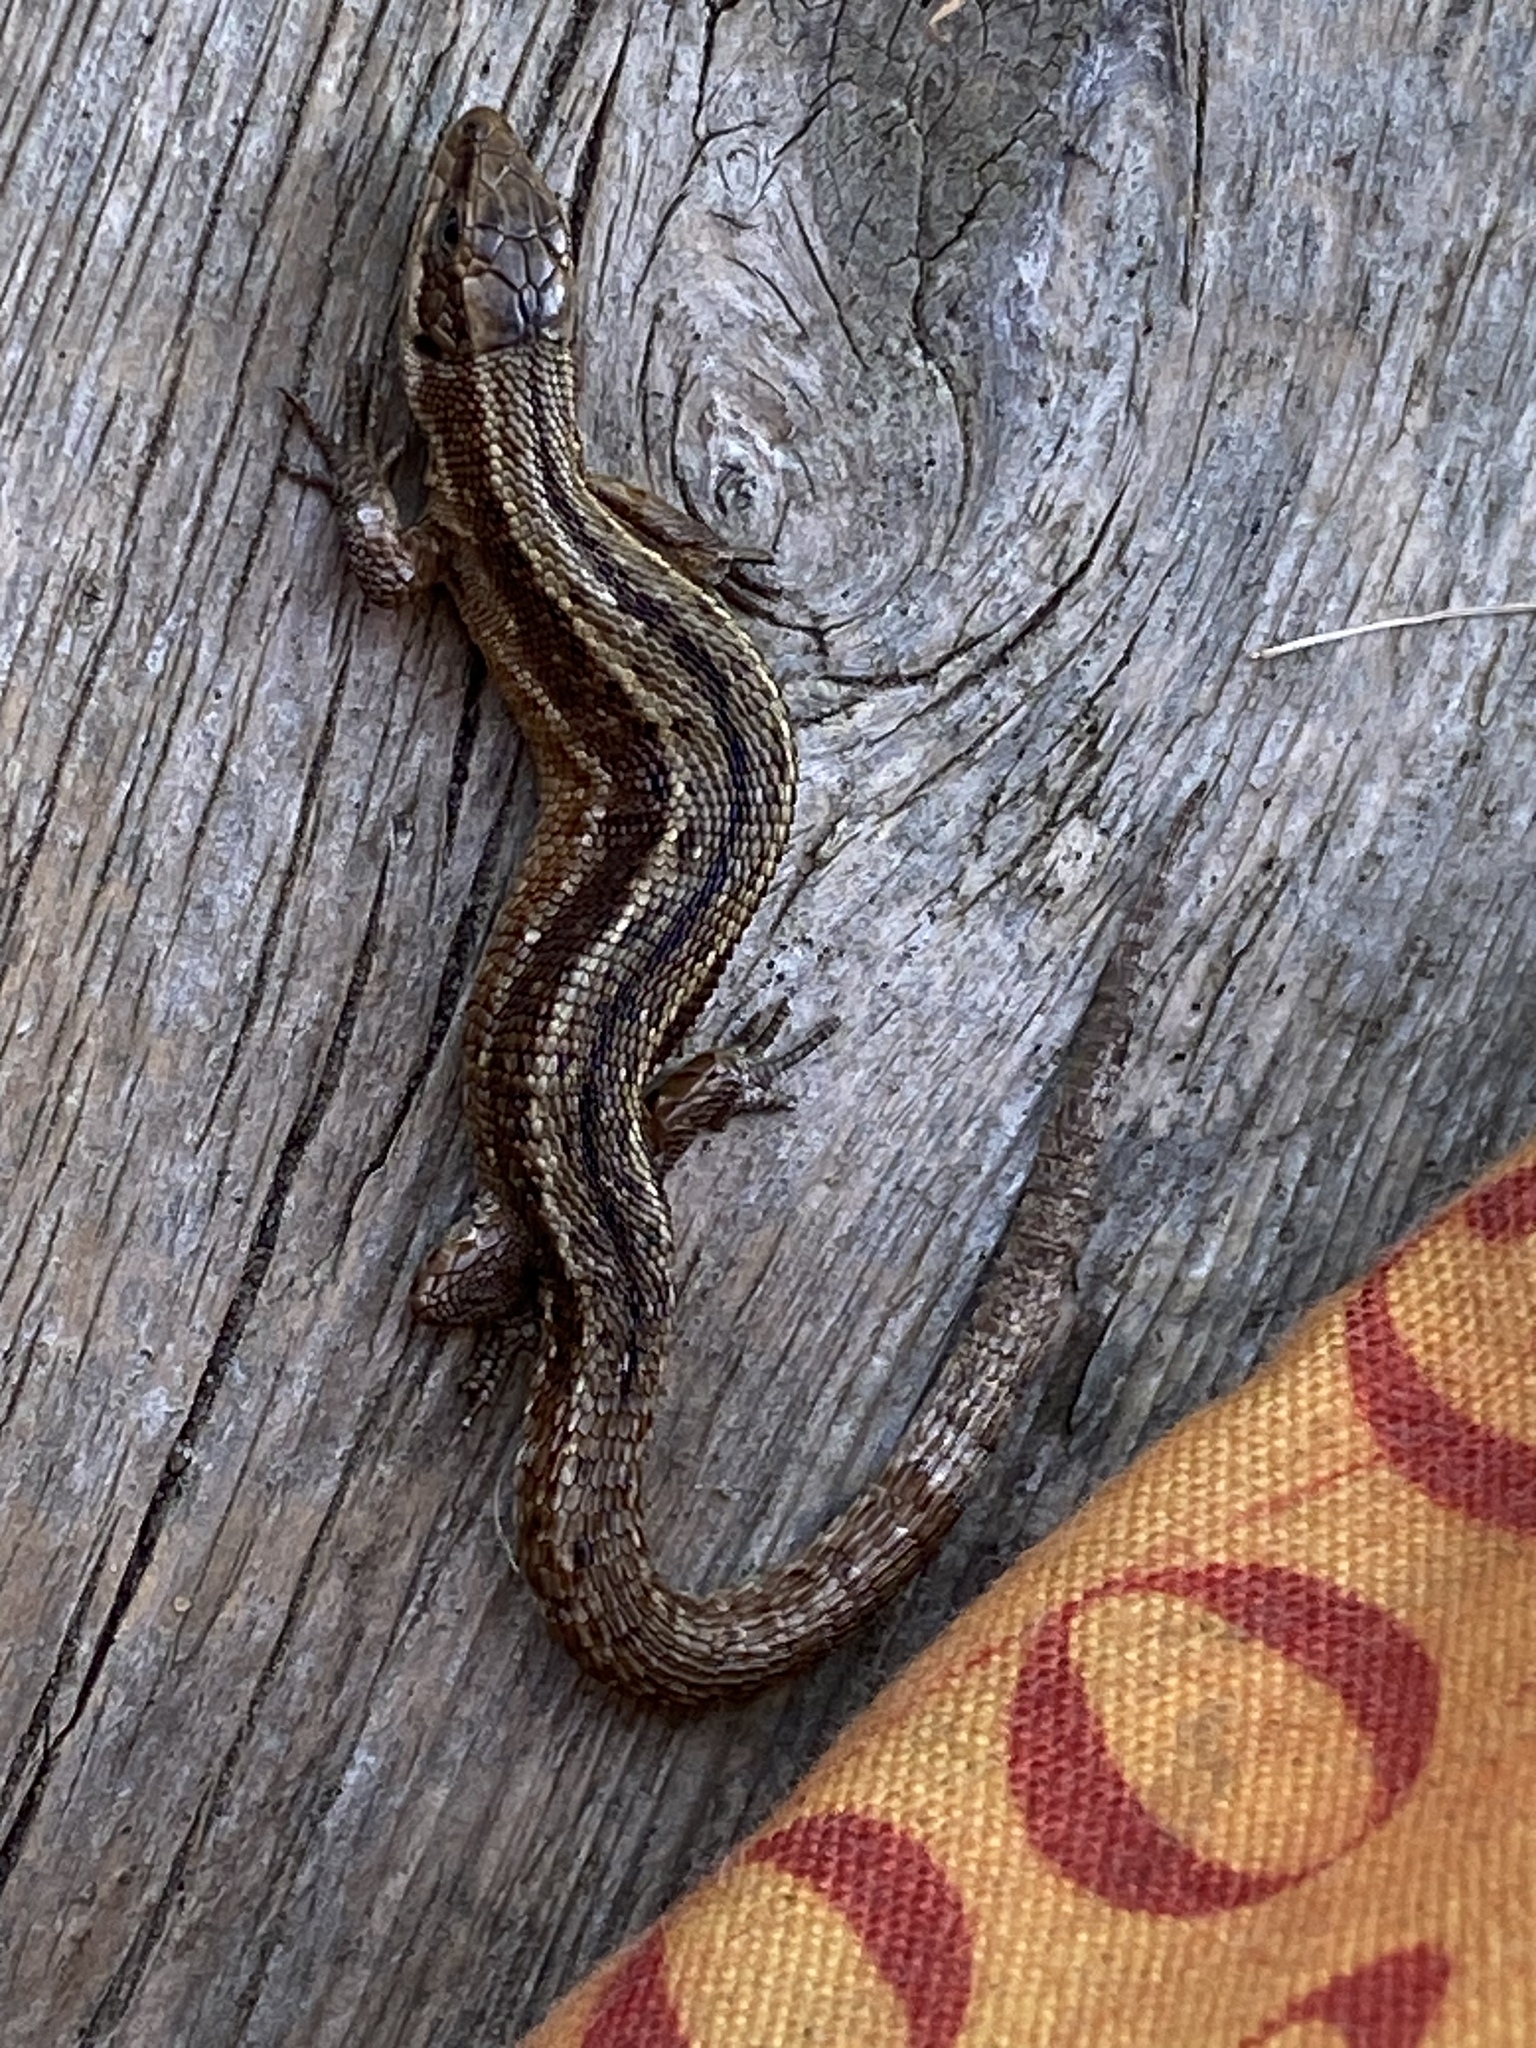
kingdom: Animalia
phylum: Chordata
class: Squamata
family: Lacertidae
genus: Zootoca
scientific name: Zootoca vivipara
